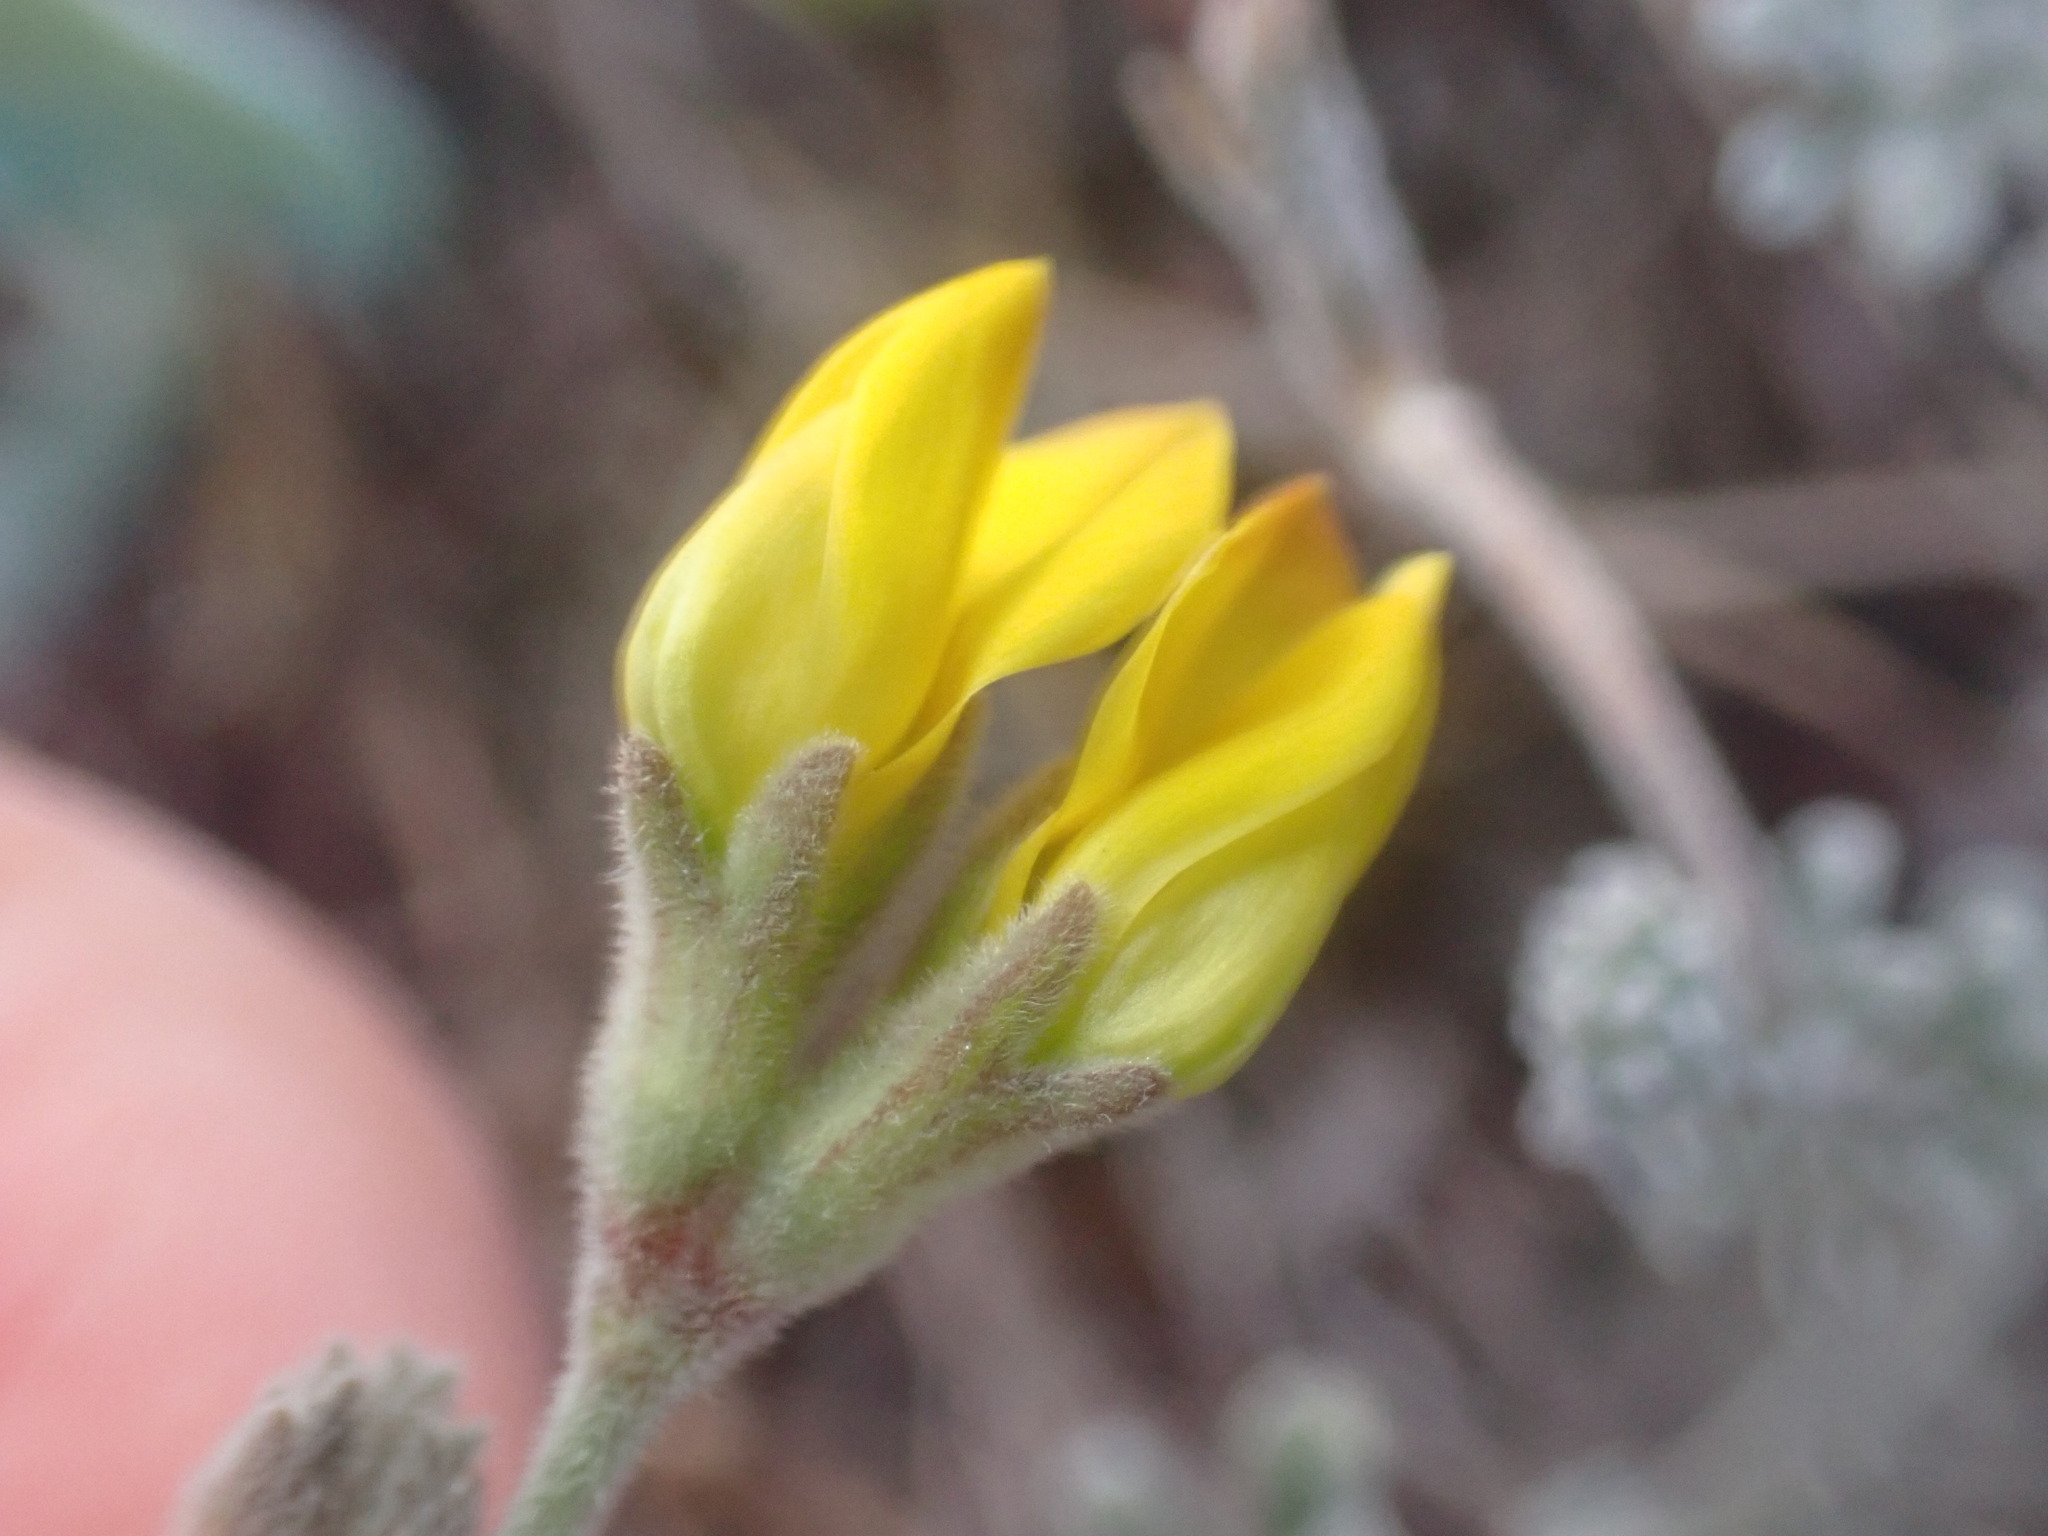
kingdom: Plantae
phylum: Tracheophyta
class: Magnoliopsida
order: Fabales
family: Fabaceae
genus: Lotus
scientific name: Lotus sessilifolius
